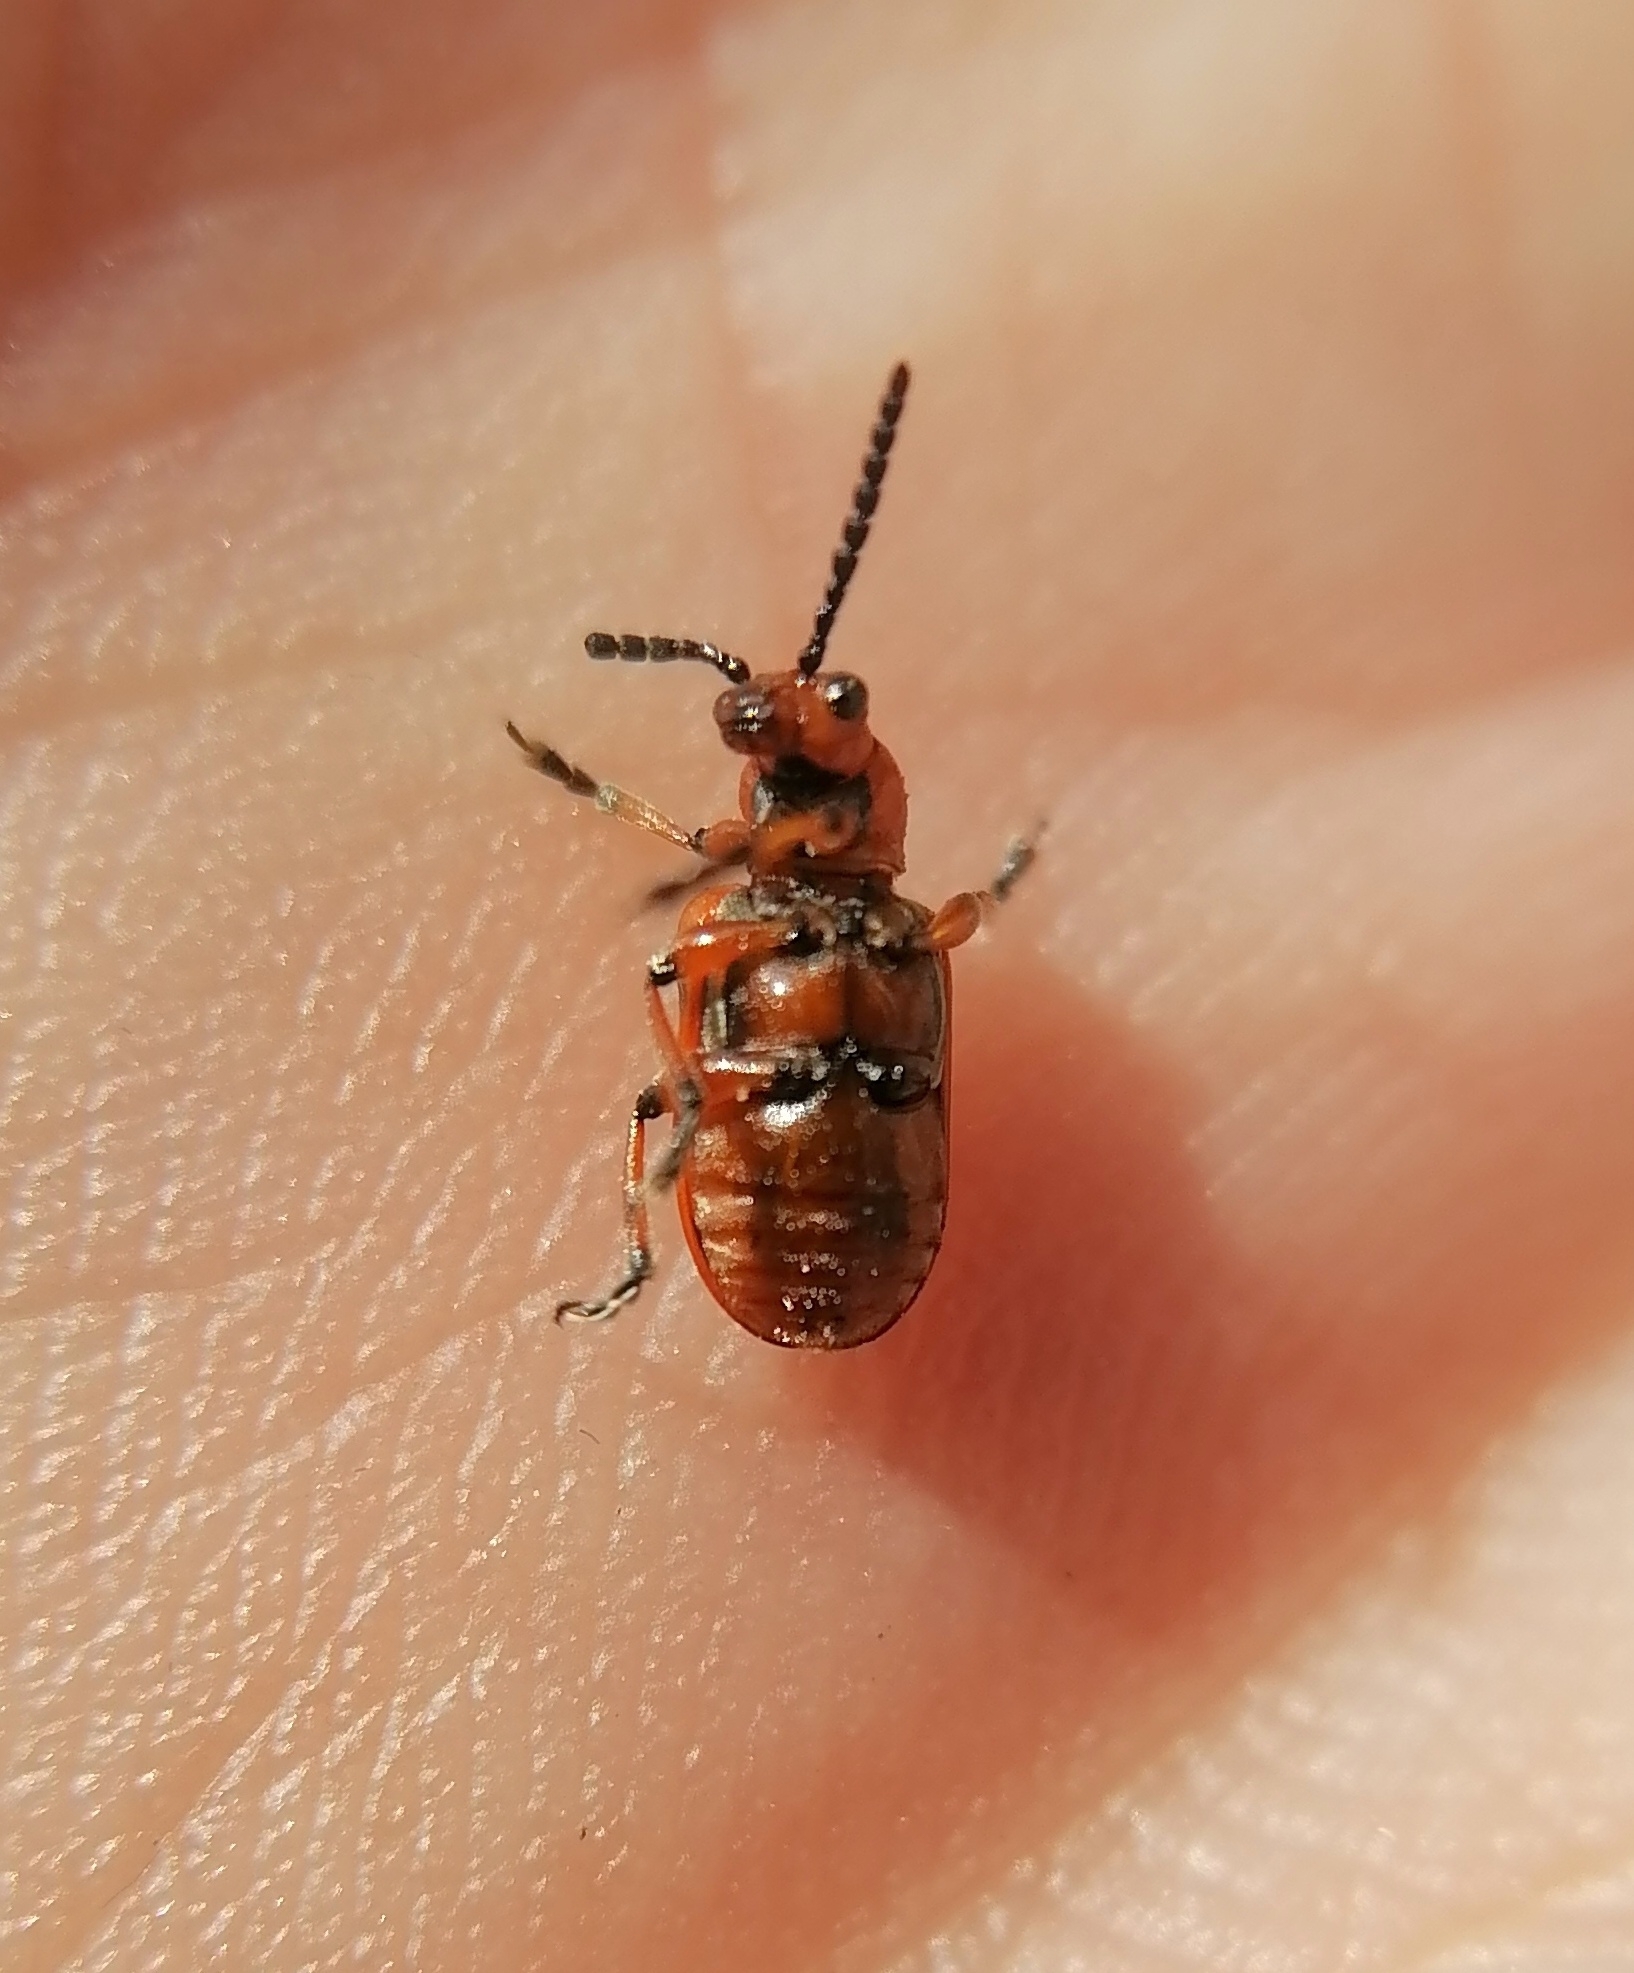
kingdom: Animalia
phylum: Arthropoda
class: Insecta
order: Coleoptera
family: Chrysomelidae
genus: Crioceris
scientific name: Crioceris duodecimpunctata
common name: Twelve-spotted asparagus beetle
